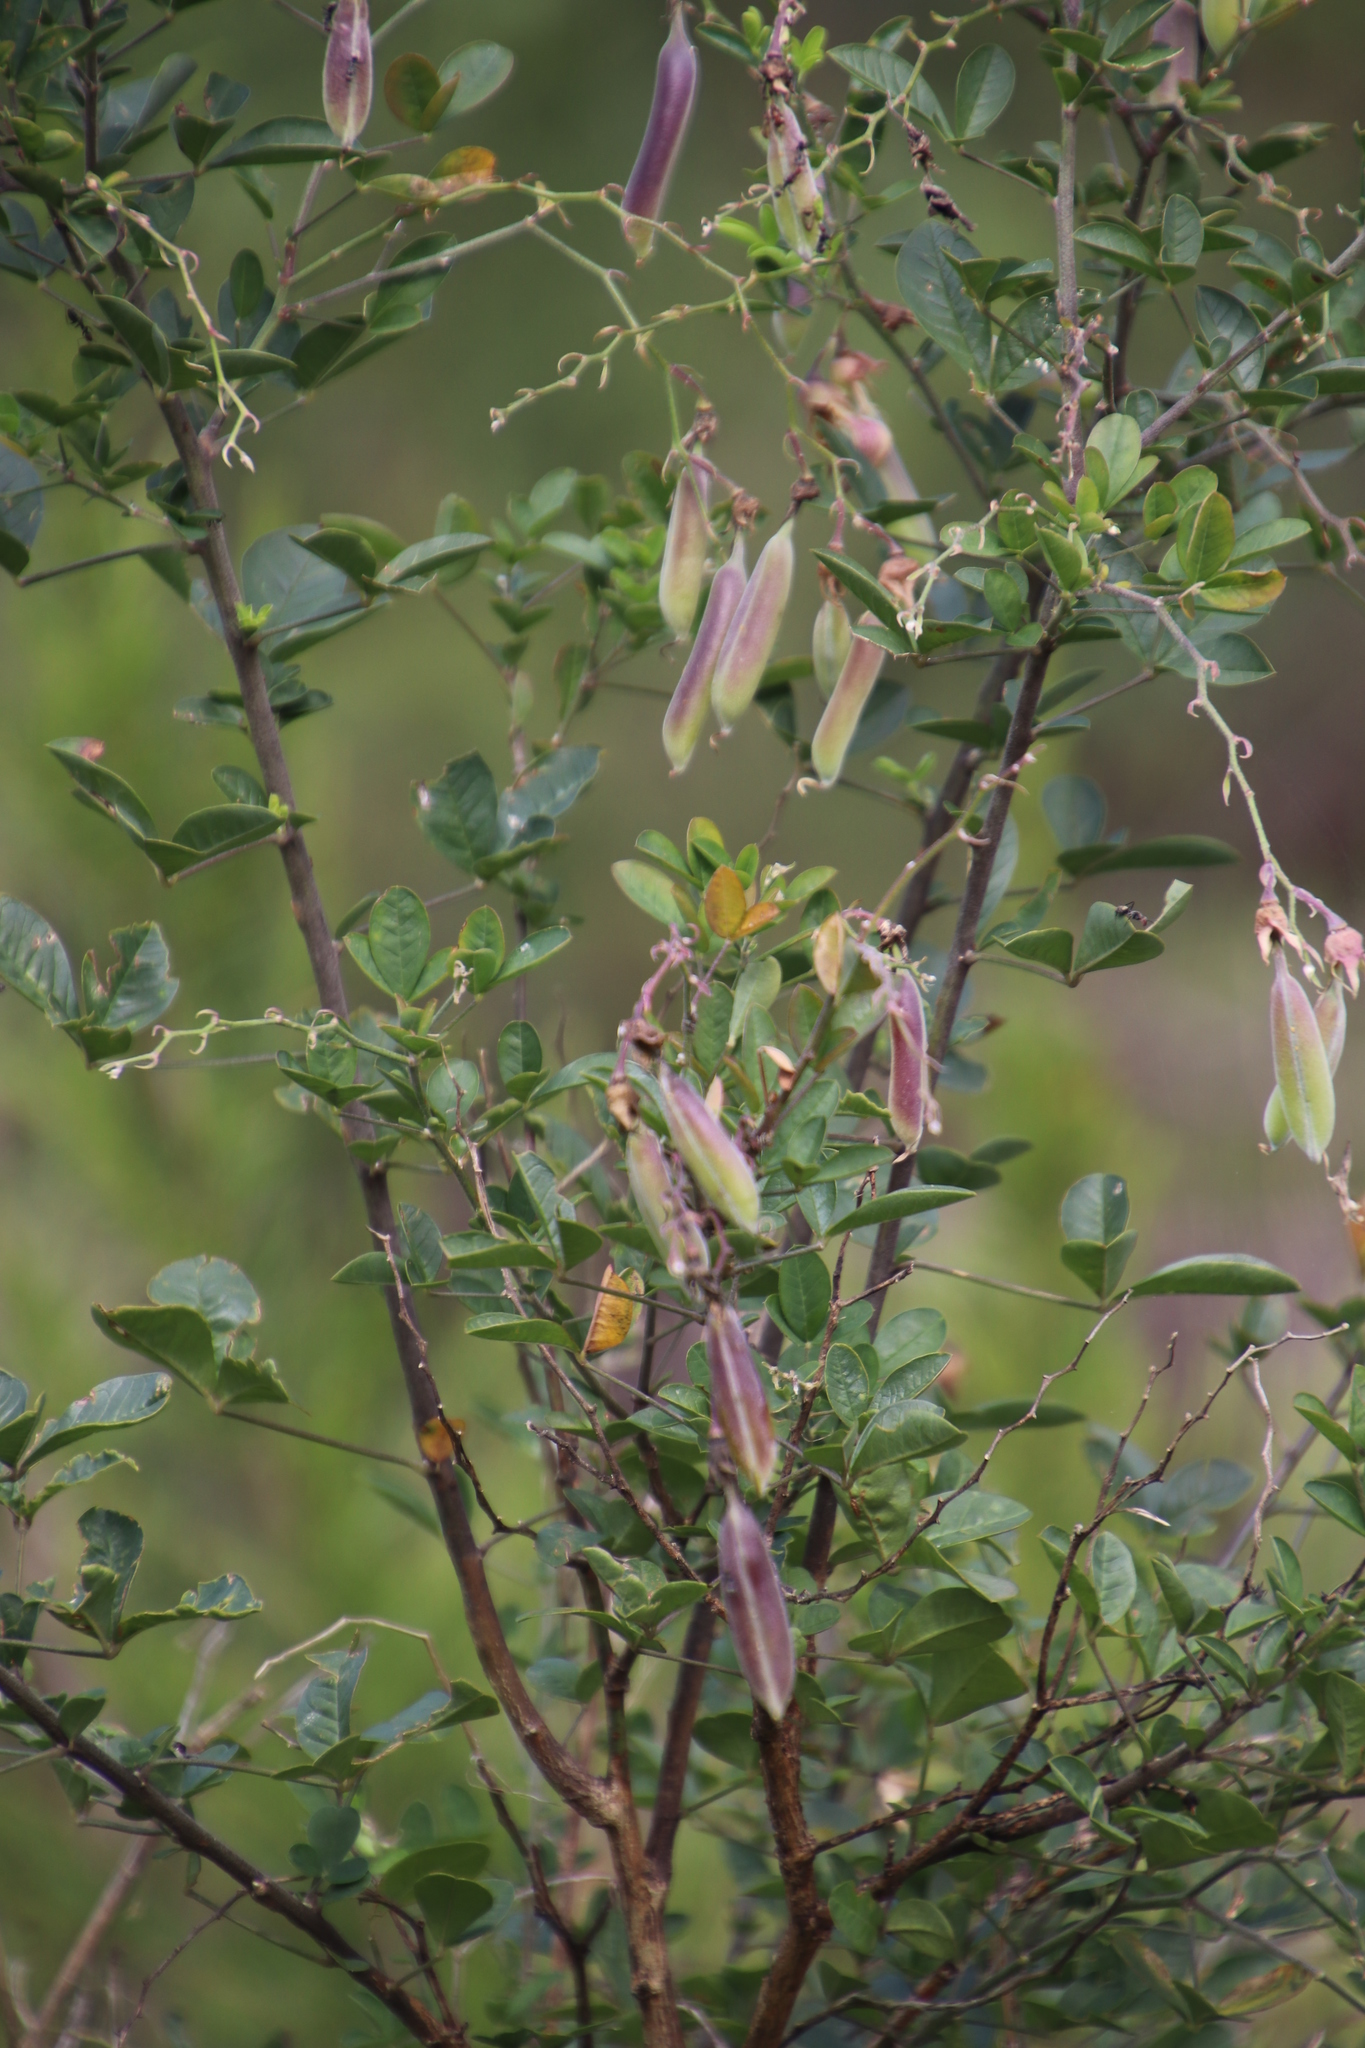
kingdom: Plantae
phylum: Tracheophyta
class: Magnoliopsida
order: Fabales
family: Fabaceae
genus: Crotalaria
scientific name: Crotalaria capensis
